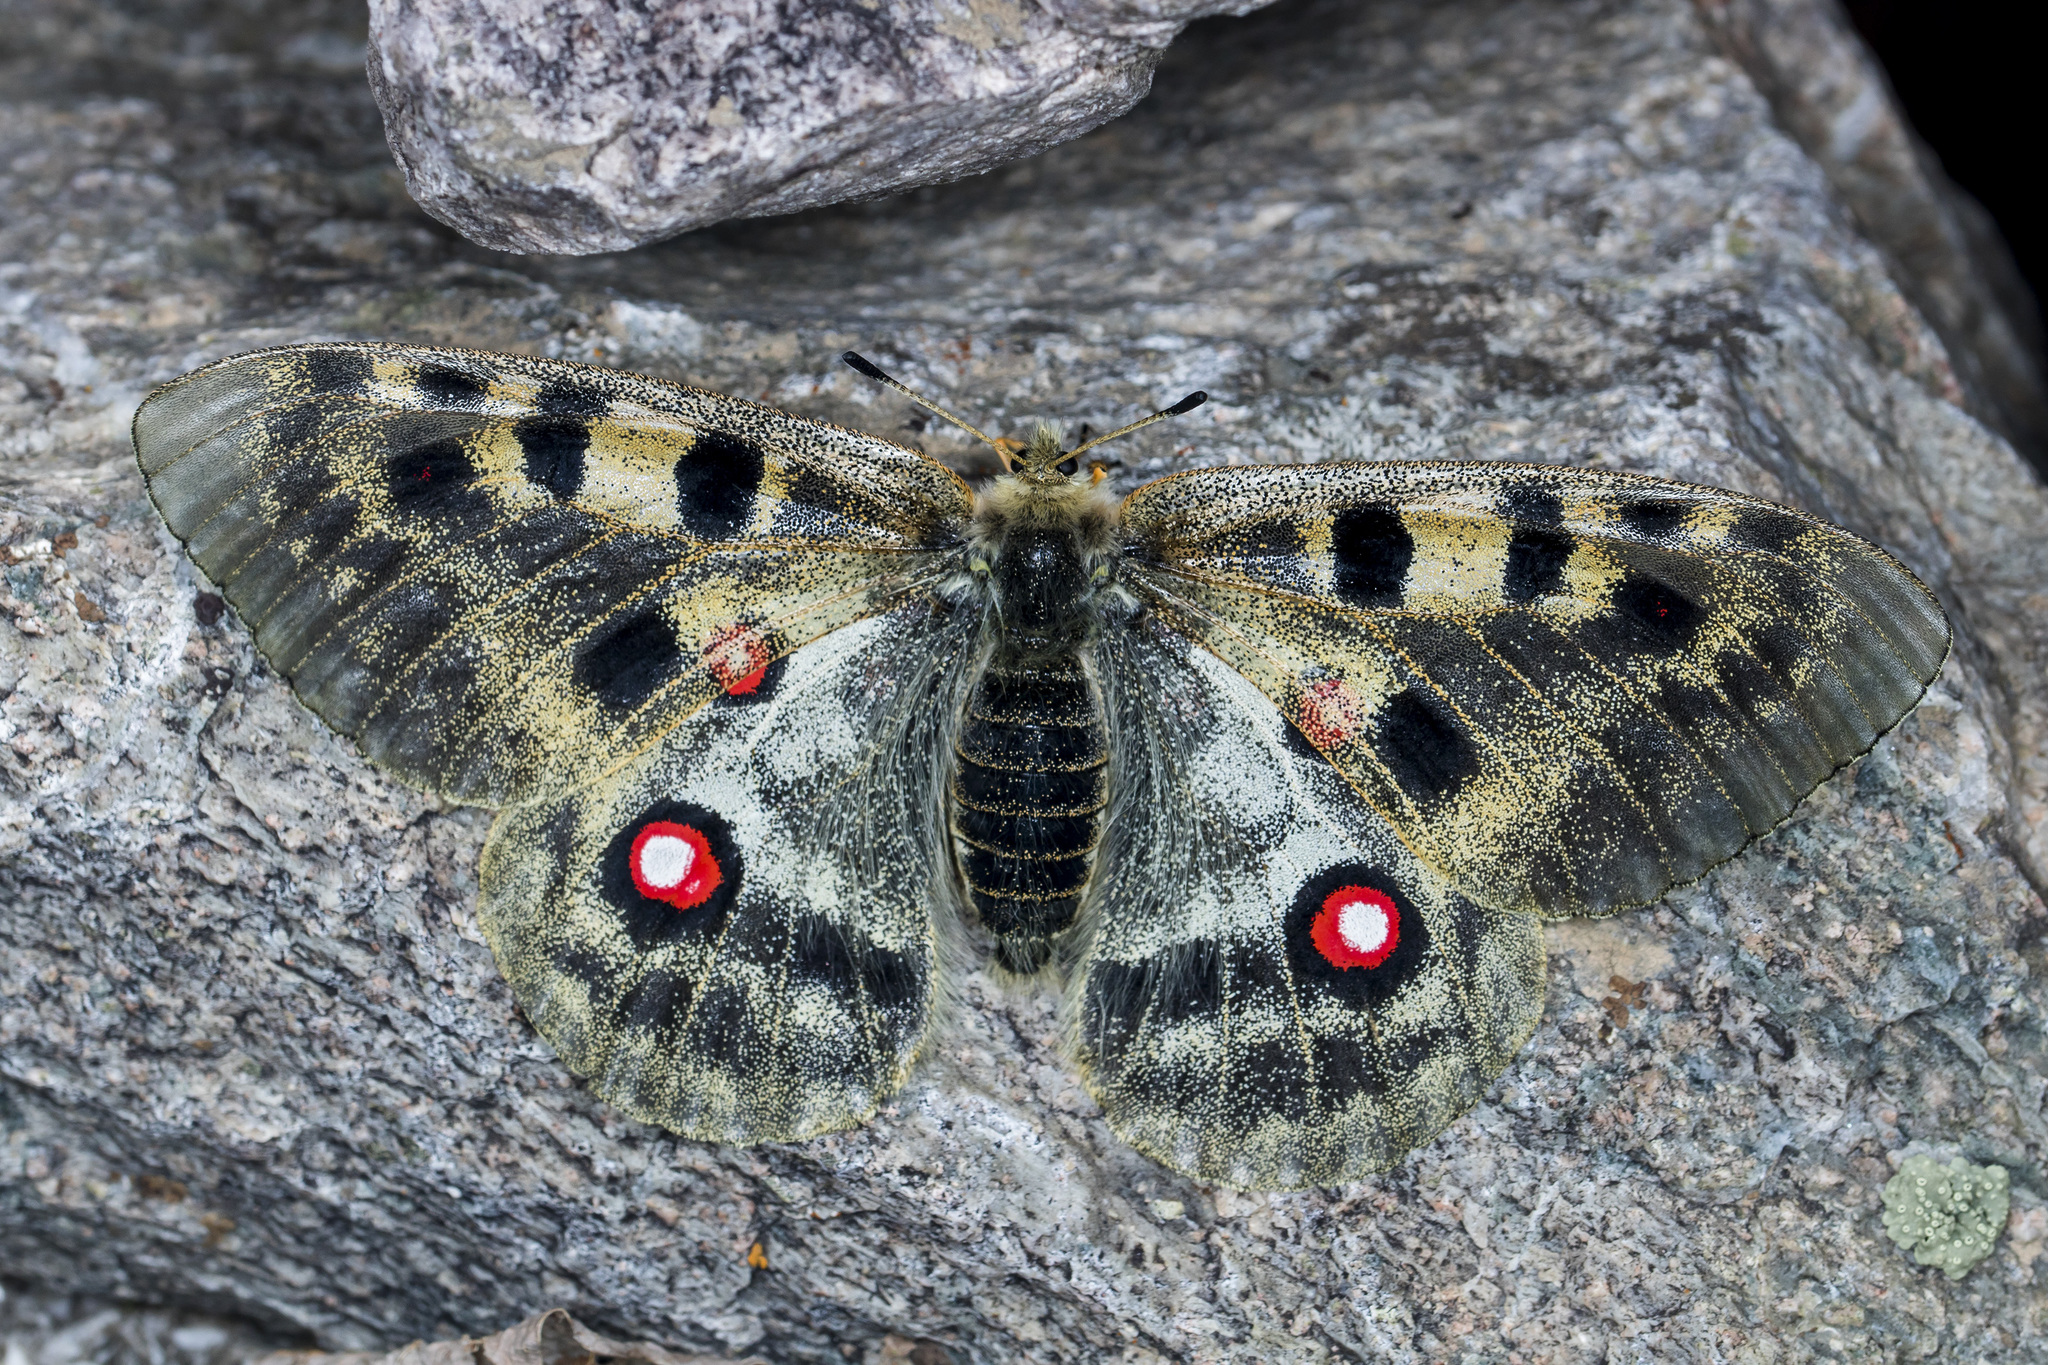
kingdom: Animalia
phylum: Arthropoda
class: Insecta
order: Lepidoptera
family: Papilionidae
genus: Parnassius
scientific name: Parnassius apollo
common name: Apollo
